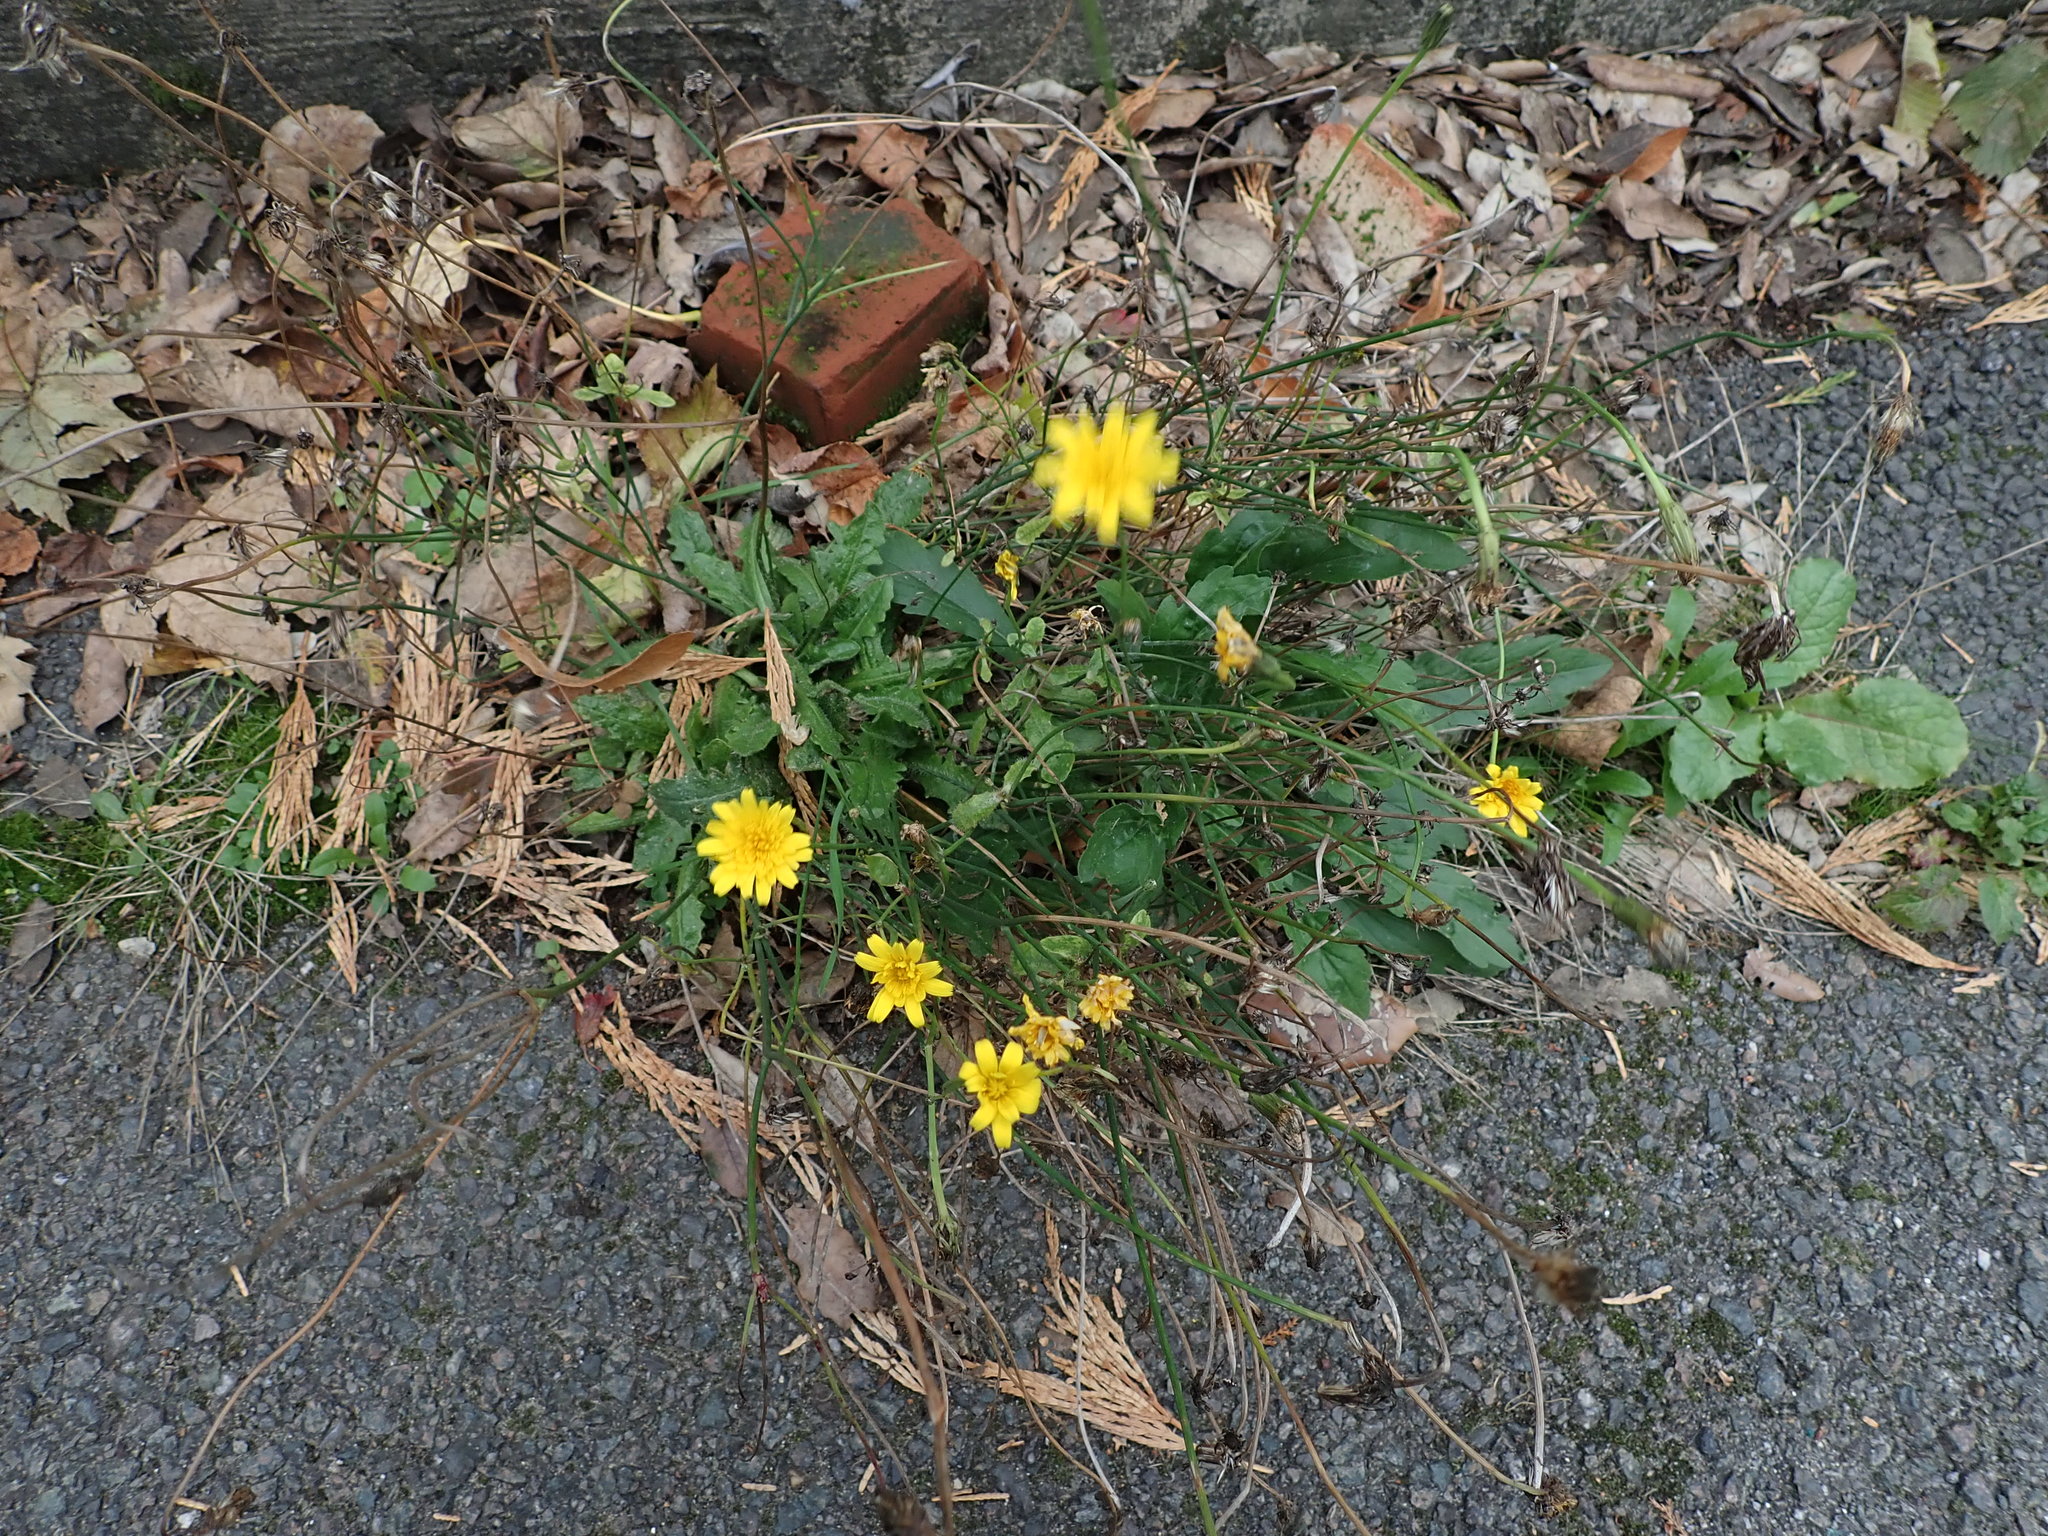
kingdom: Plantae
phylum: Tracheophyta
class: Magnoliopsida
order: Asterales
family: Asteraceae
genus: Hypochaeris
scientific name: Hypochaeris radicata
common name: Flatweed
